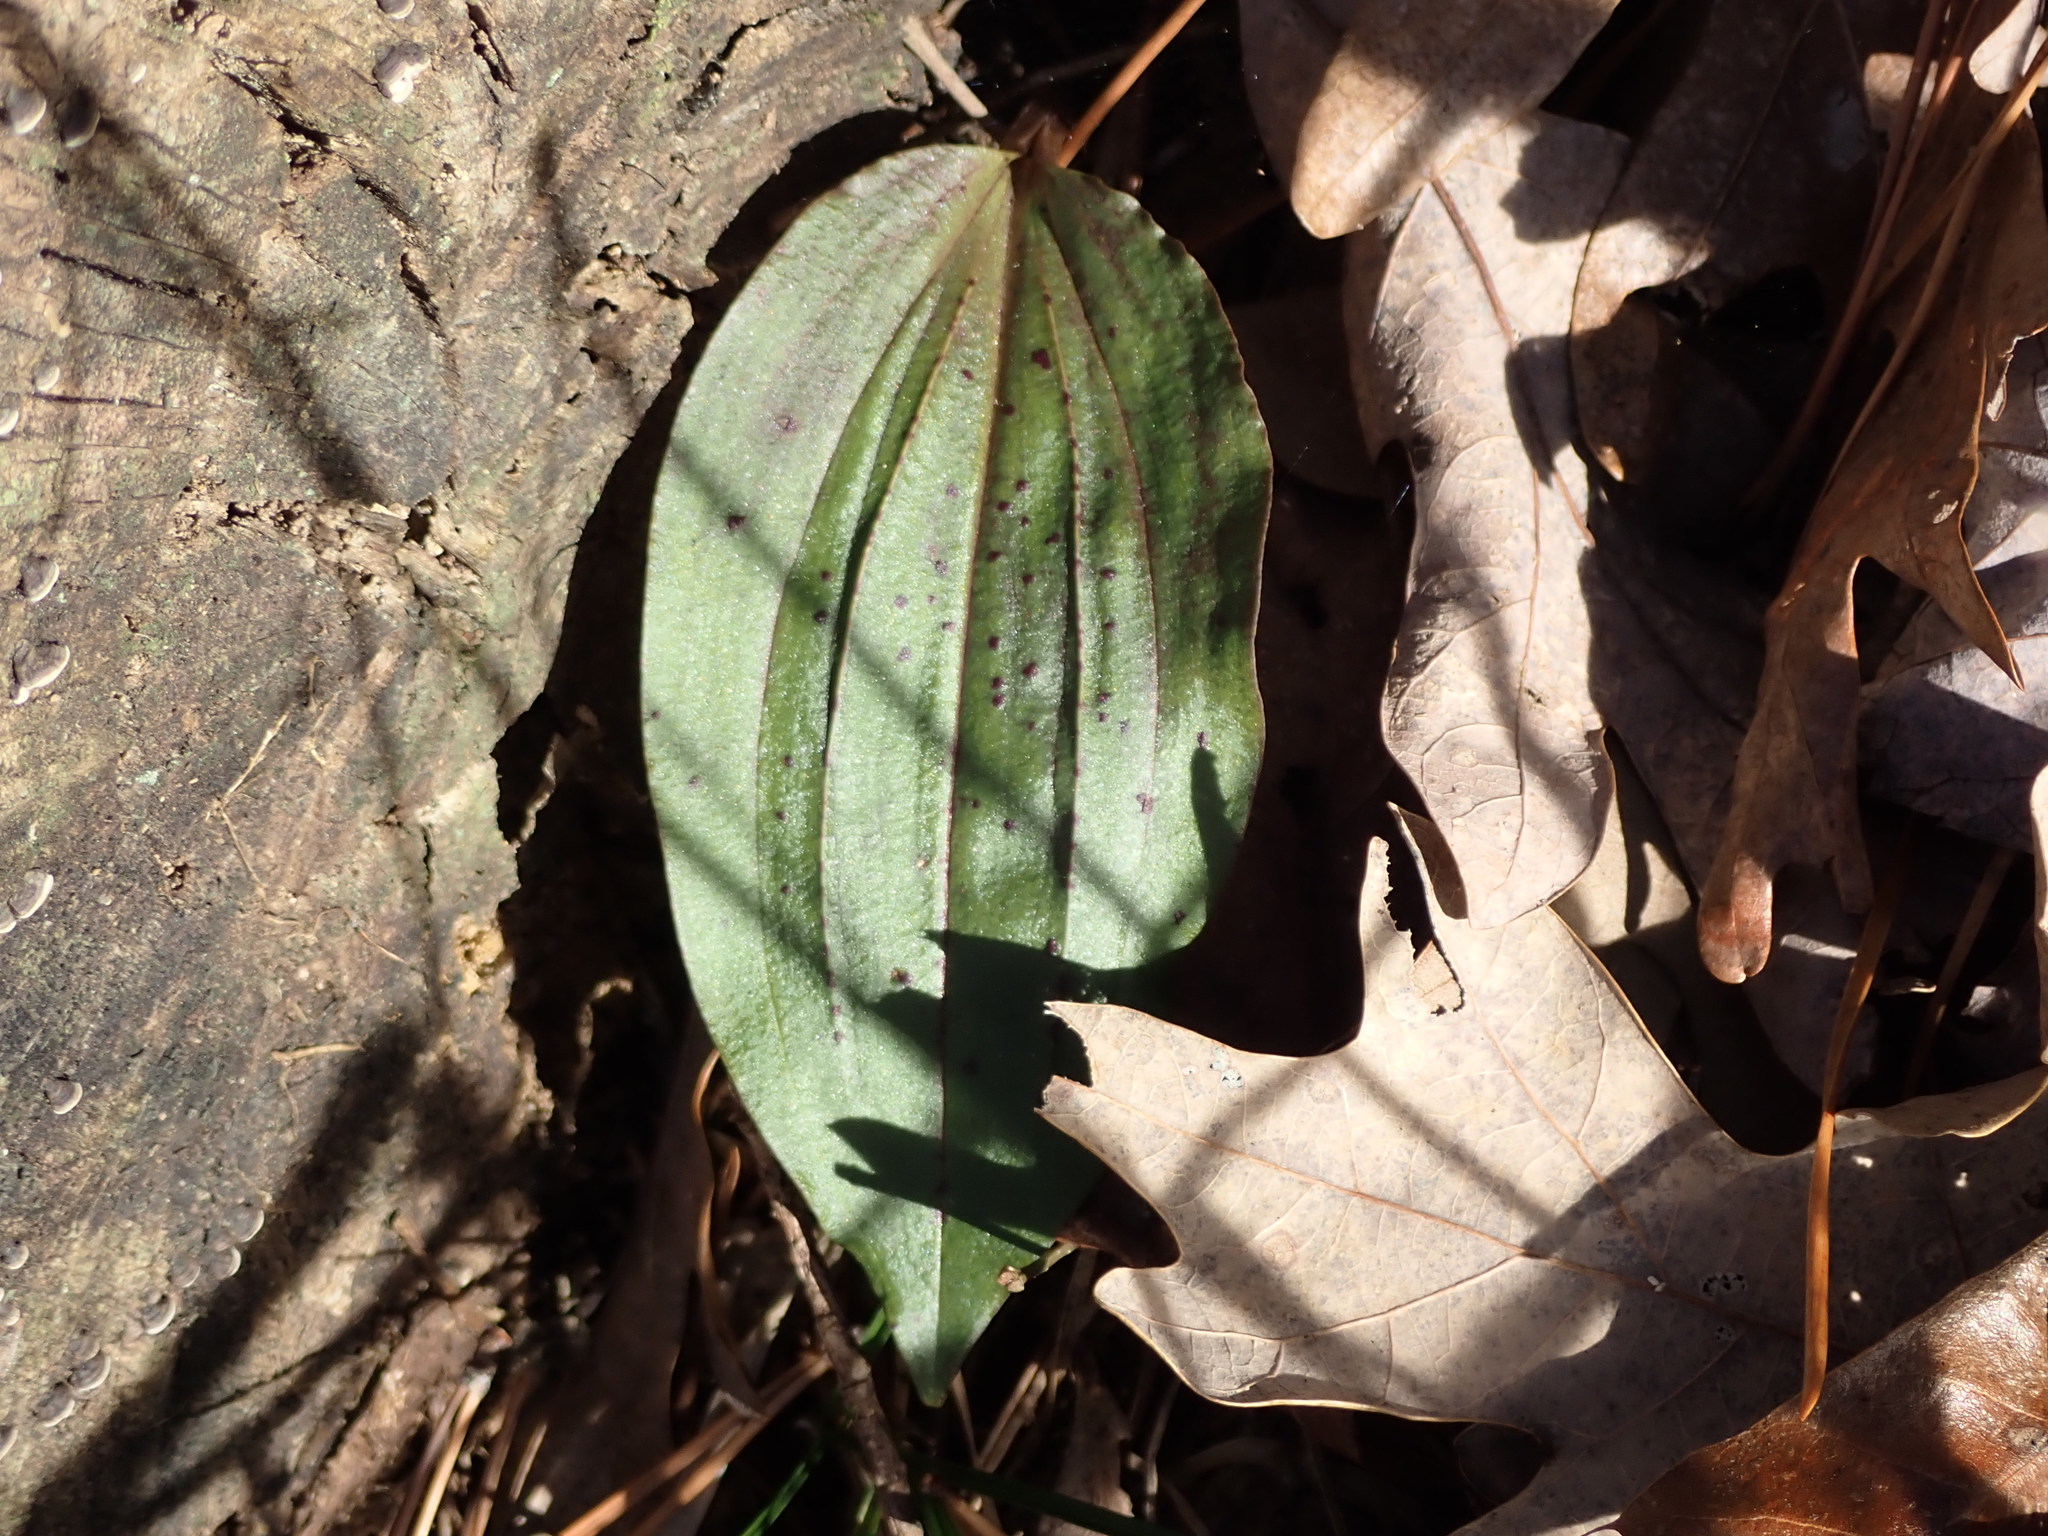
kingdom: Plantae
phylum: Tracheophyta
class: Liliopsida
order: Asparagales
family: Orchidaceae
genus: Tipularia
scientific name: Tipularia discolor
